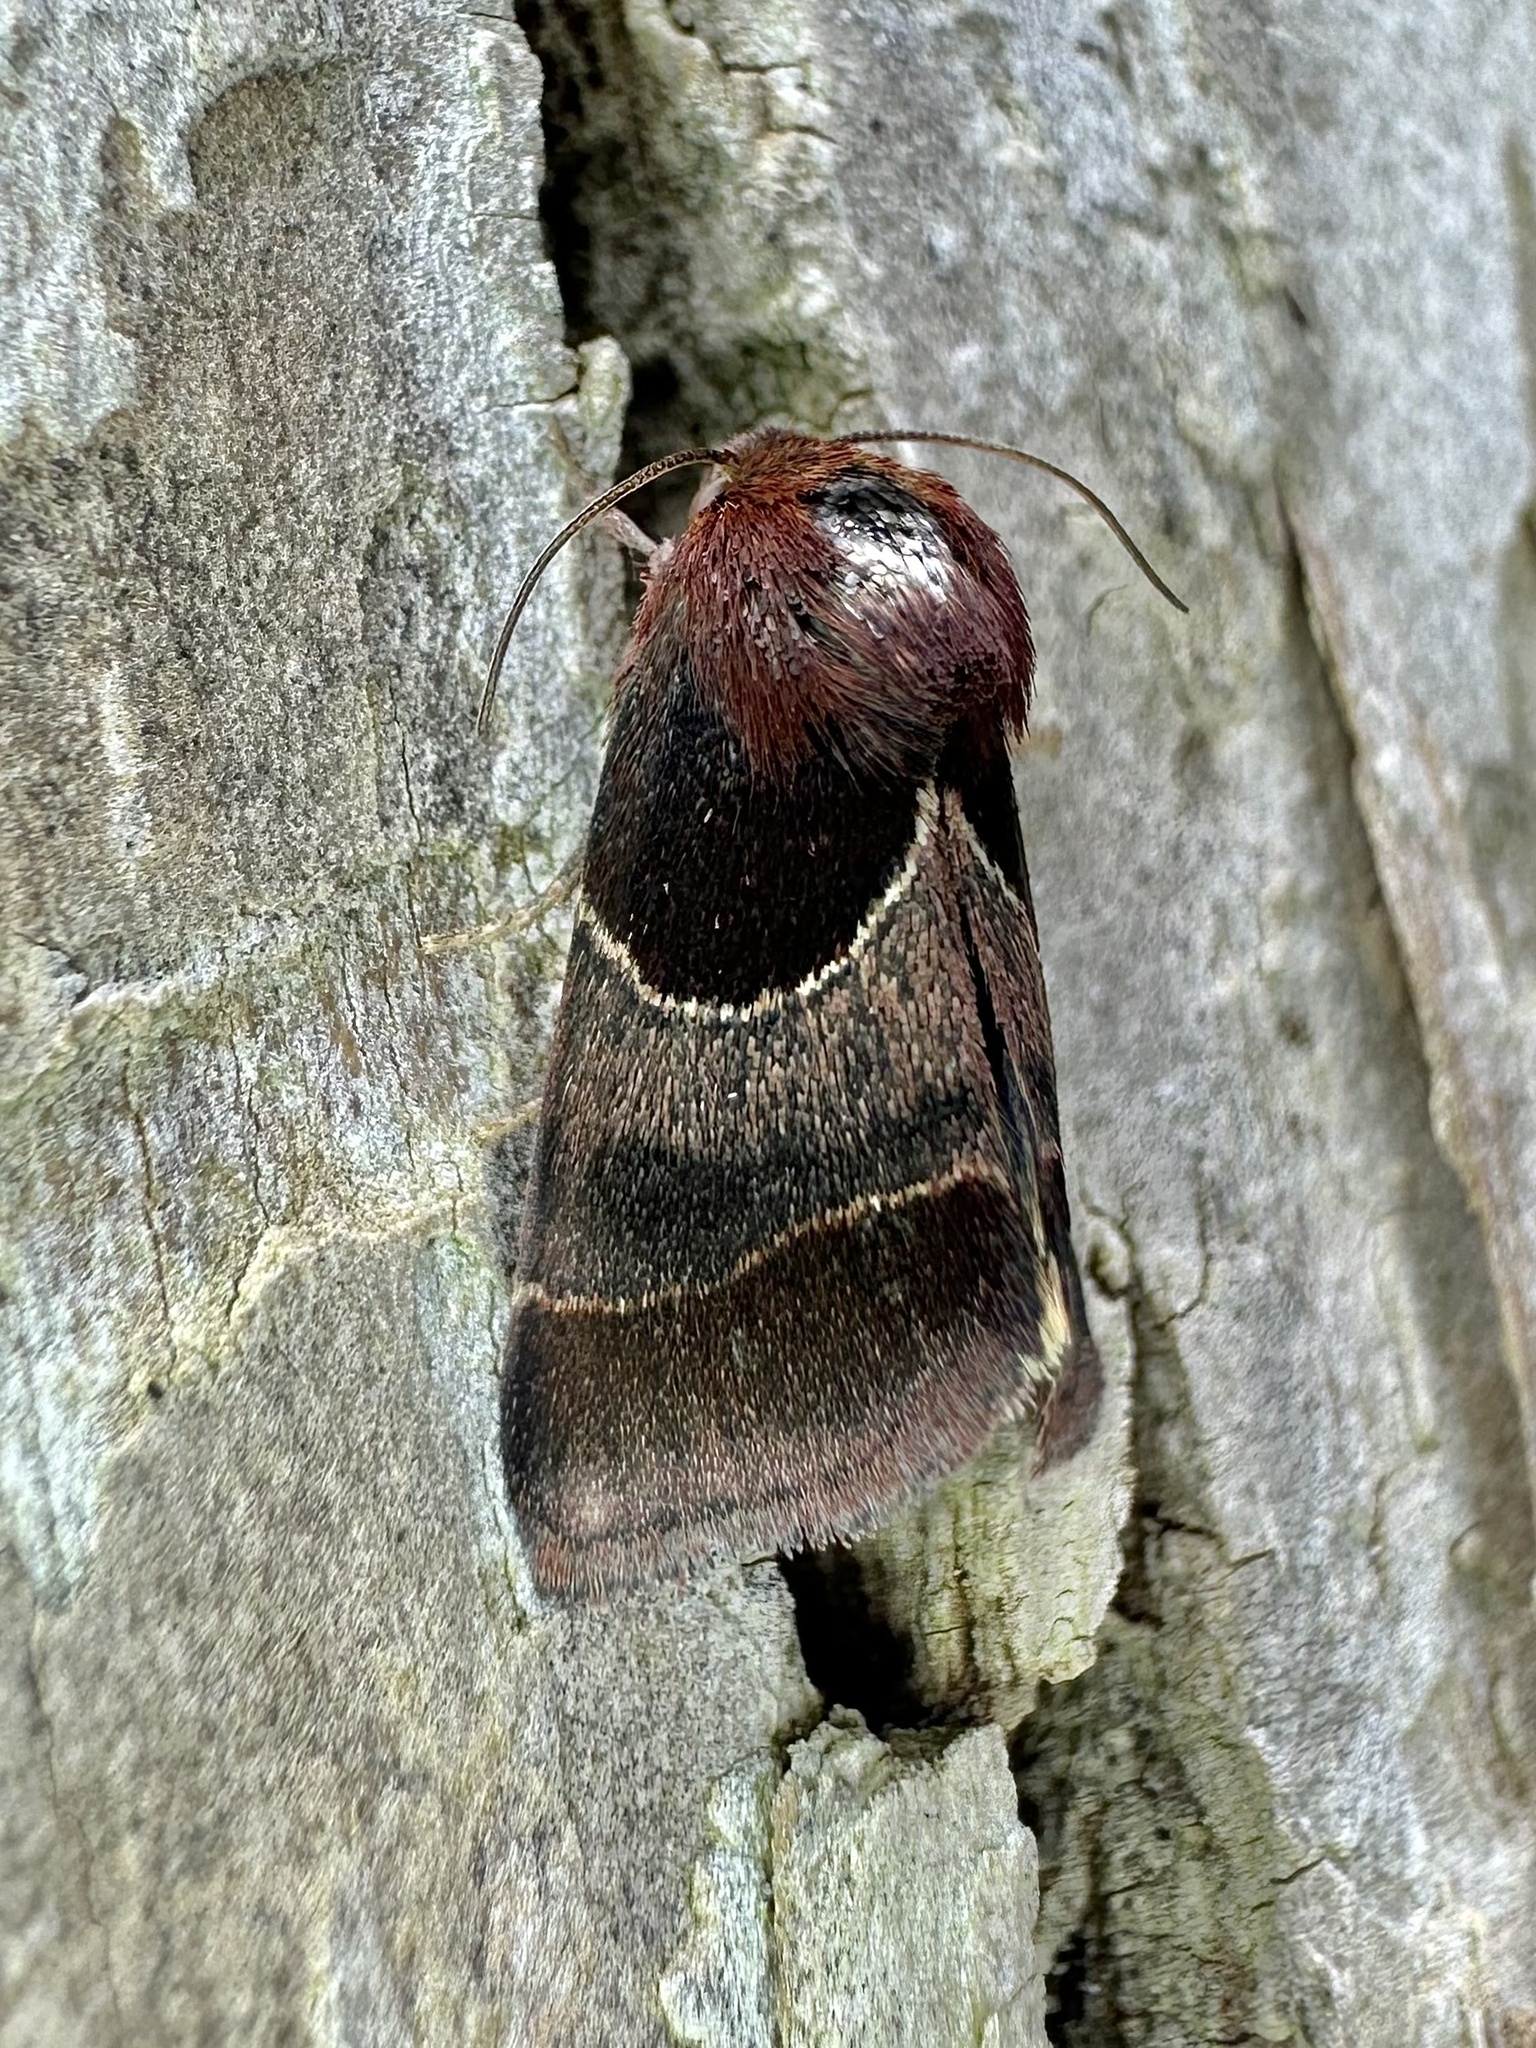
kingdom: Animalia
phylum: Arthropoda
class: Insecta
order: Lepidoptera
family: Noctuidae
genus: Schinia
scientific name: Schinia arcigera
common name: Arcigera flower moth
